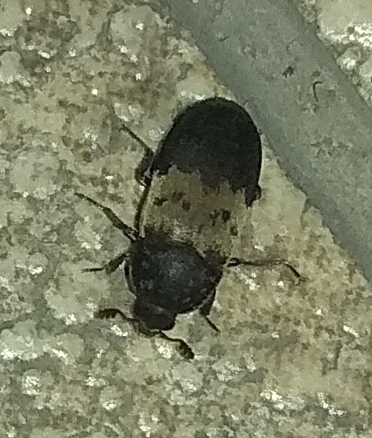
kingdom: Animalia
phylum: Arthropoda
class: Insecta
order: Coleoptera
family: Dermestidae
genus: Dermestes
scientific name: Dermestes lardarius
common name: Larder beetle
